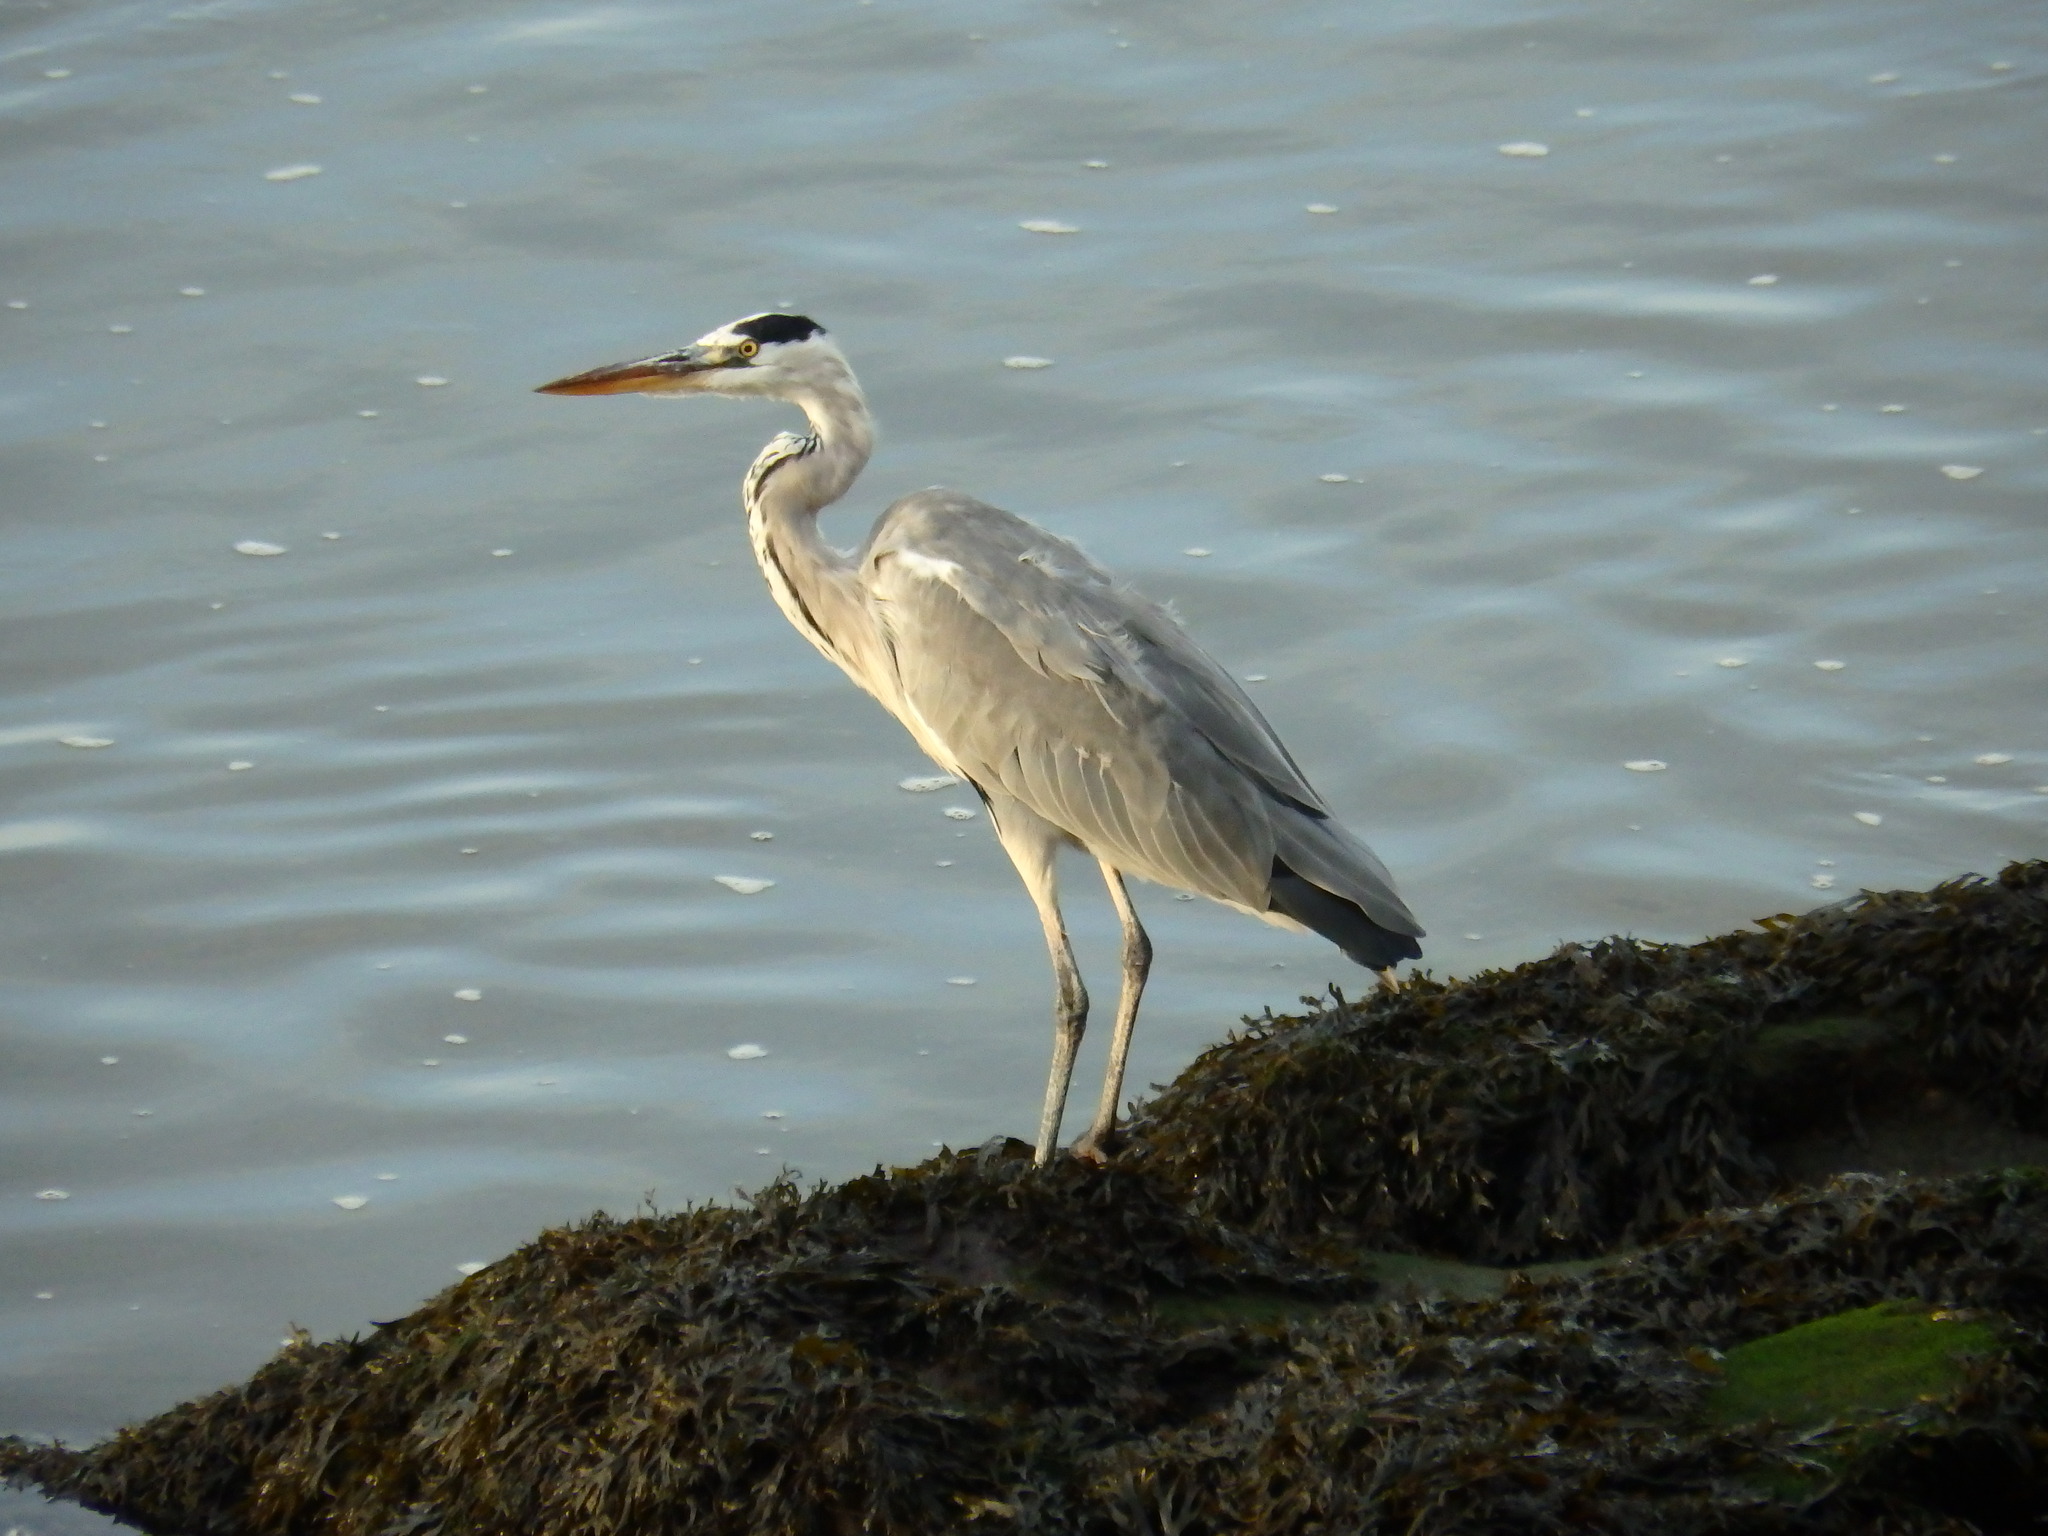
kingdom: Animalia
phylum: Chordata
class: Aves
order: Pelecaniformes
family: Ardeidae
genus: Ardea
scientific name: Ardea cinerea
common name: Grey heron
